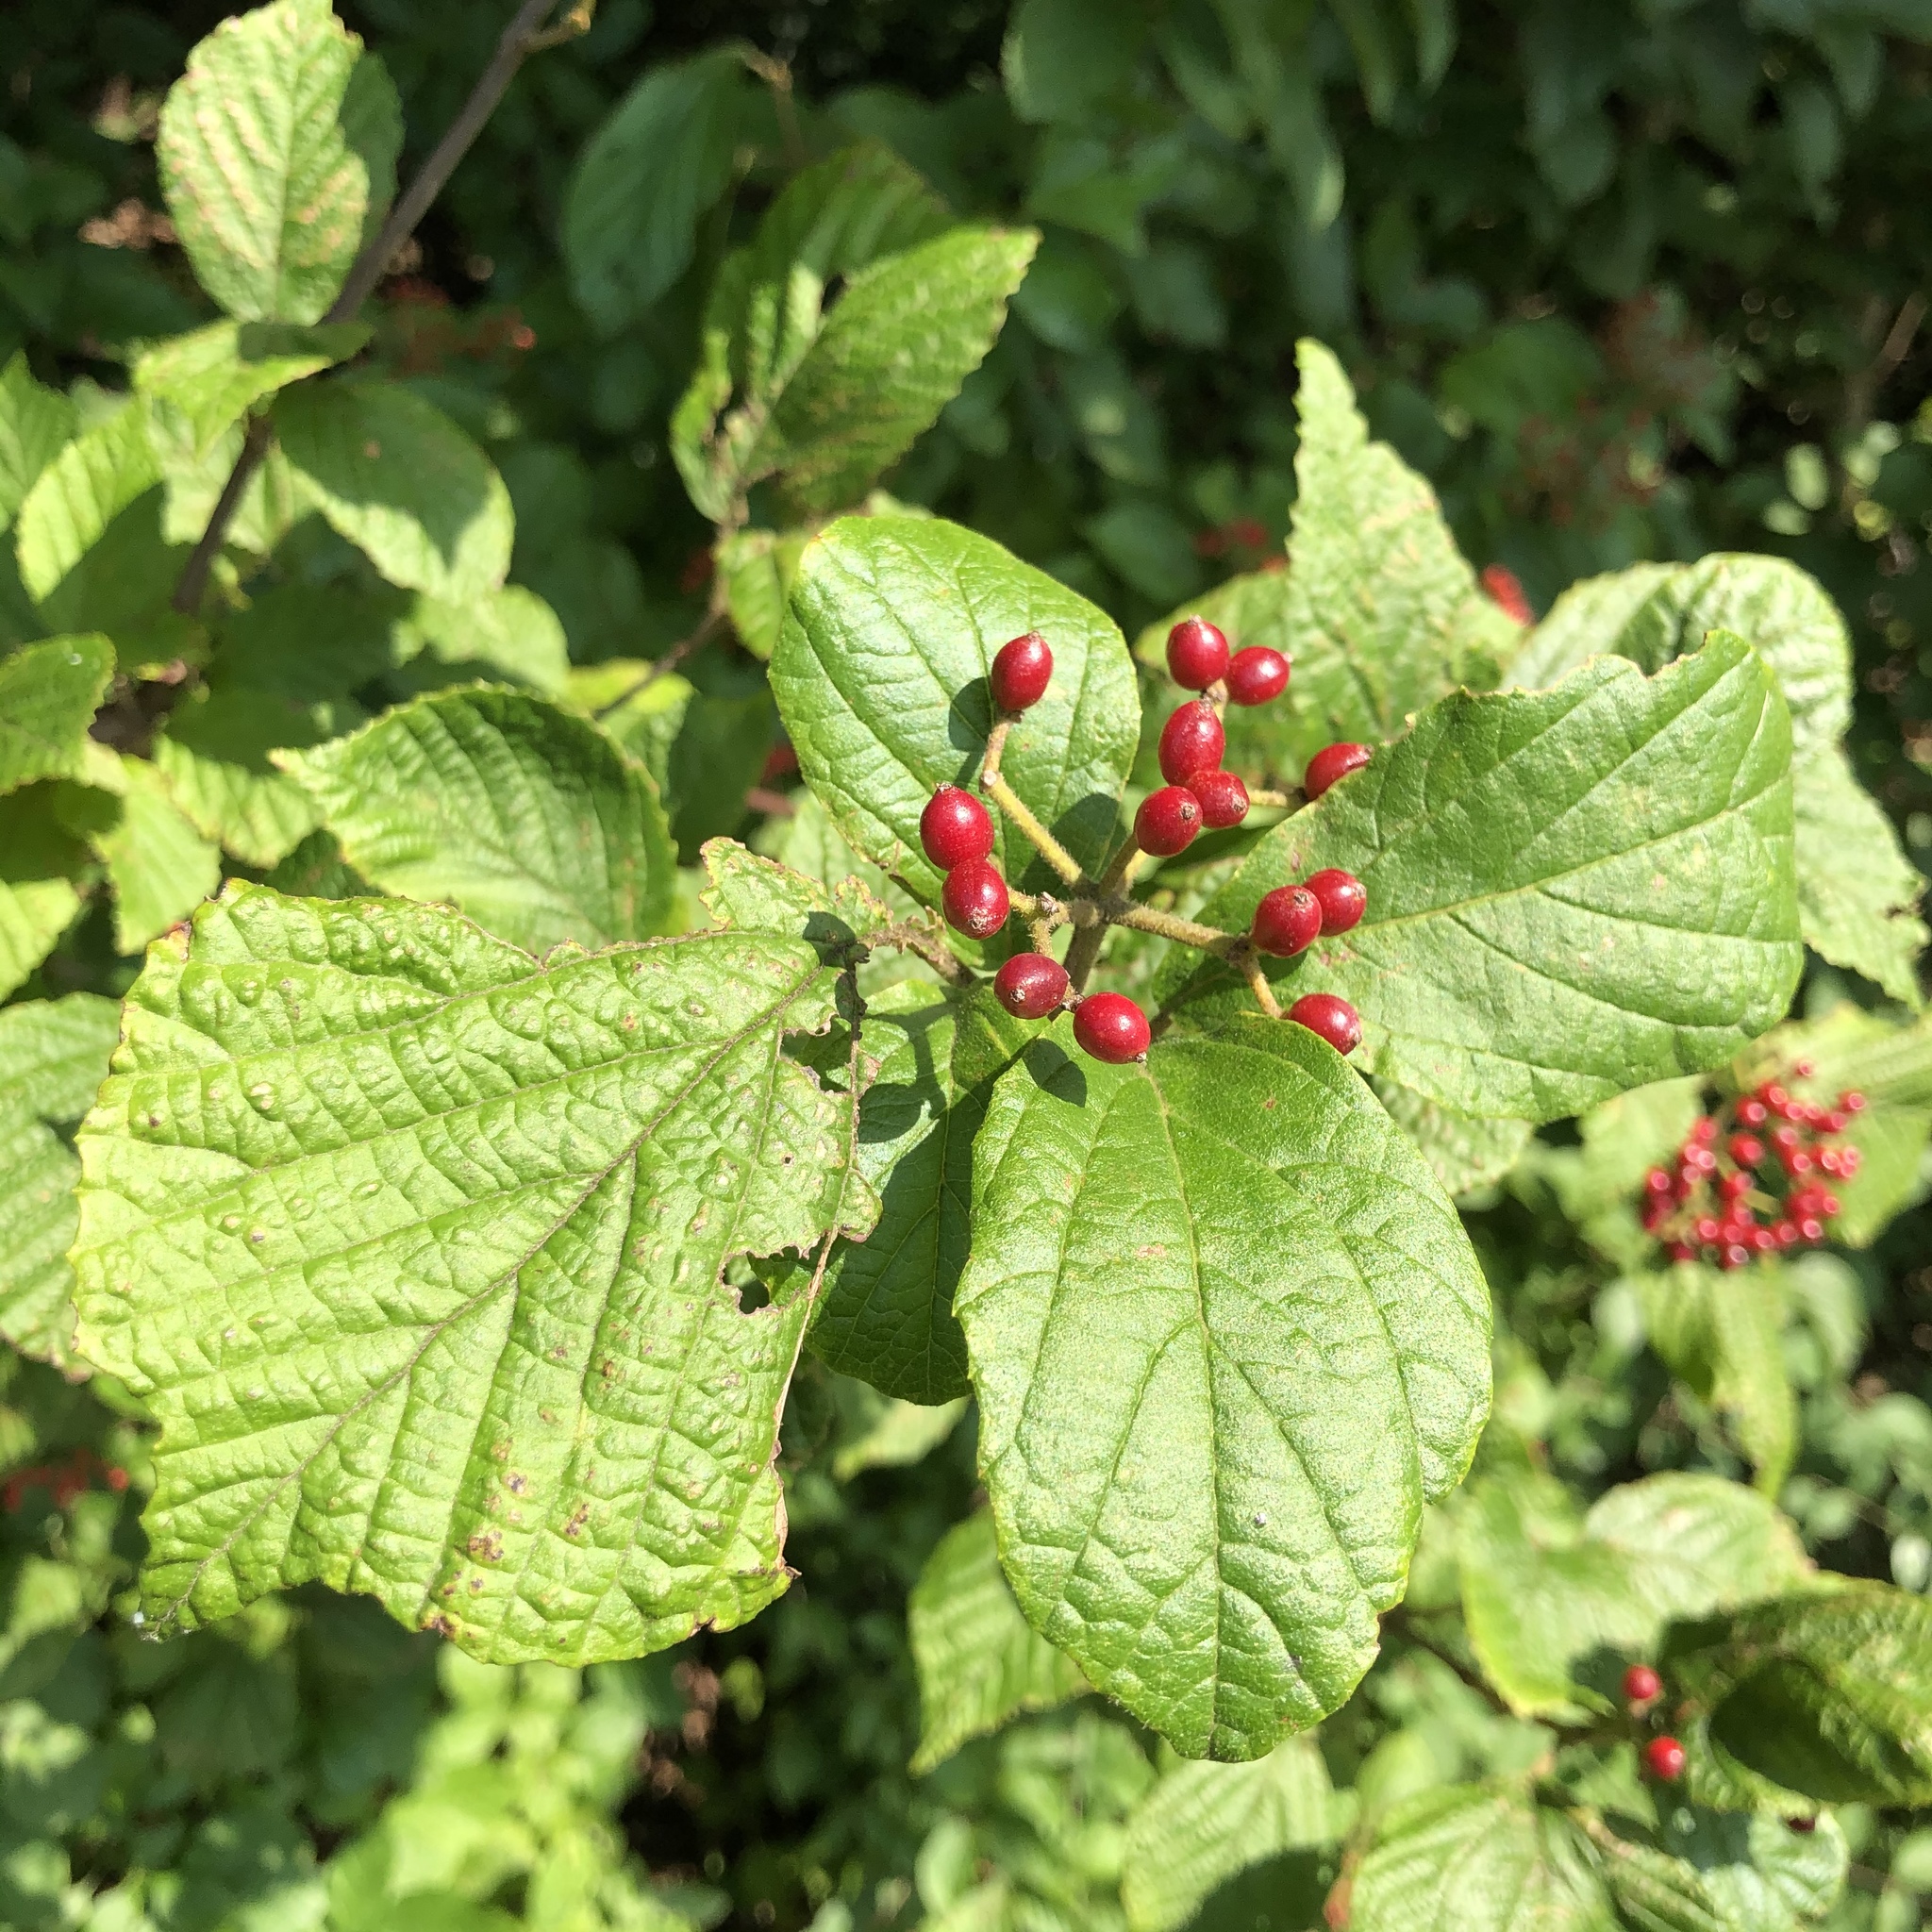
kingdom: Plantae
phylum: Tracheophyta
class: Magnoliopsida
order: Dipsacales
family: Viburnaceae
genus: Viburnum
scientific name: Viburnum dilatatum
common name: Linden arrowwood
